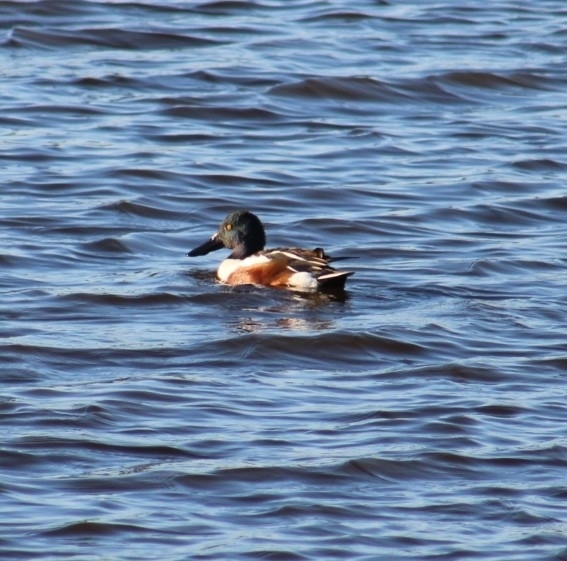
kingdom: Animalia
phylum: Chordata
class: Aves
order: Anseriformes
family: Anatidae
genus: Spatula
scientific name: Spatula clypeata
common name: Northern shoveler
